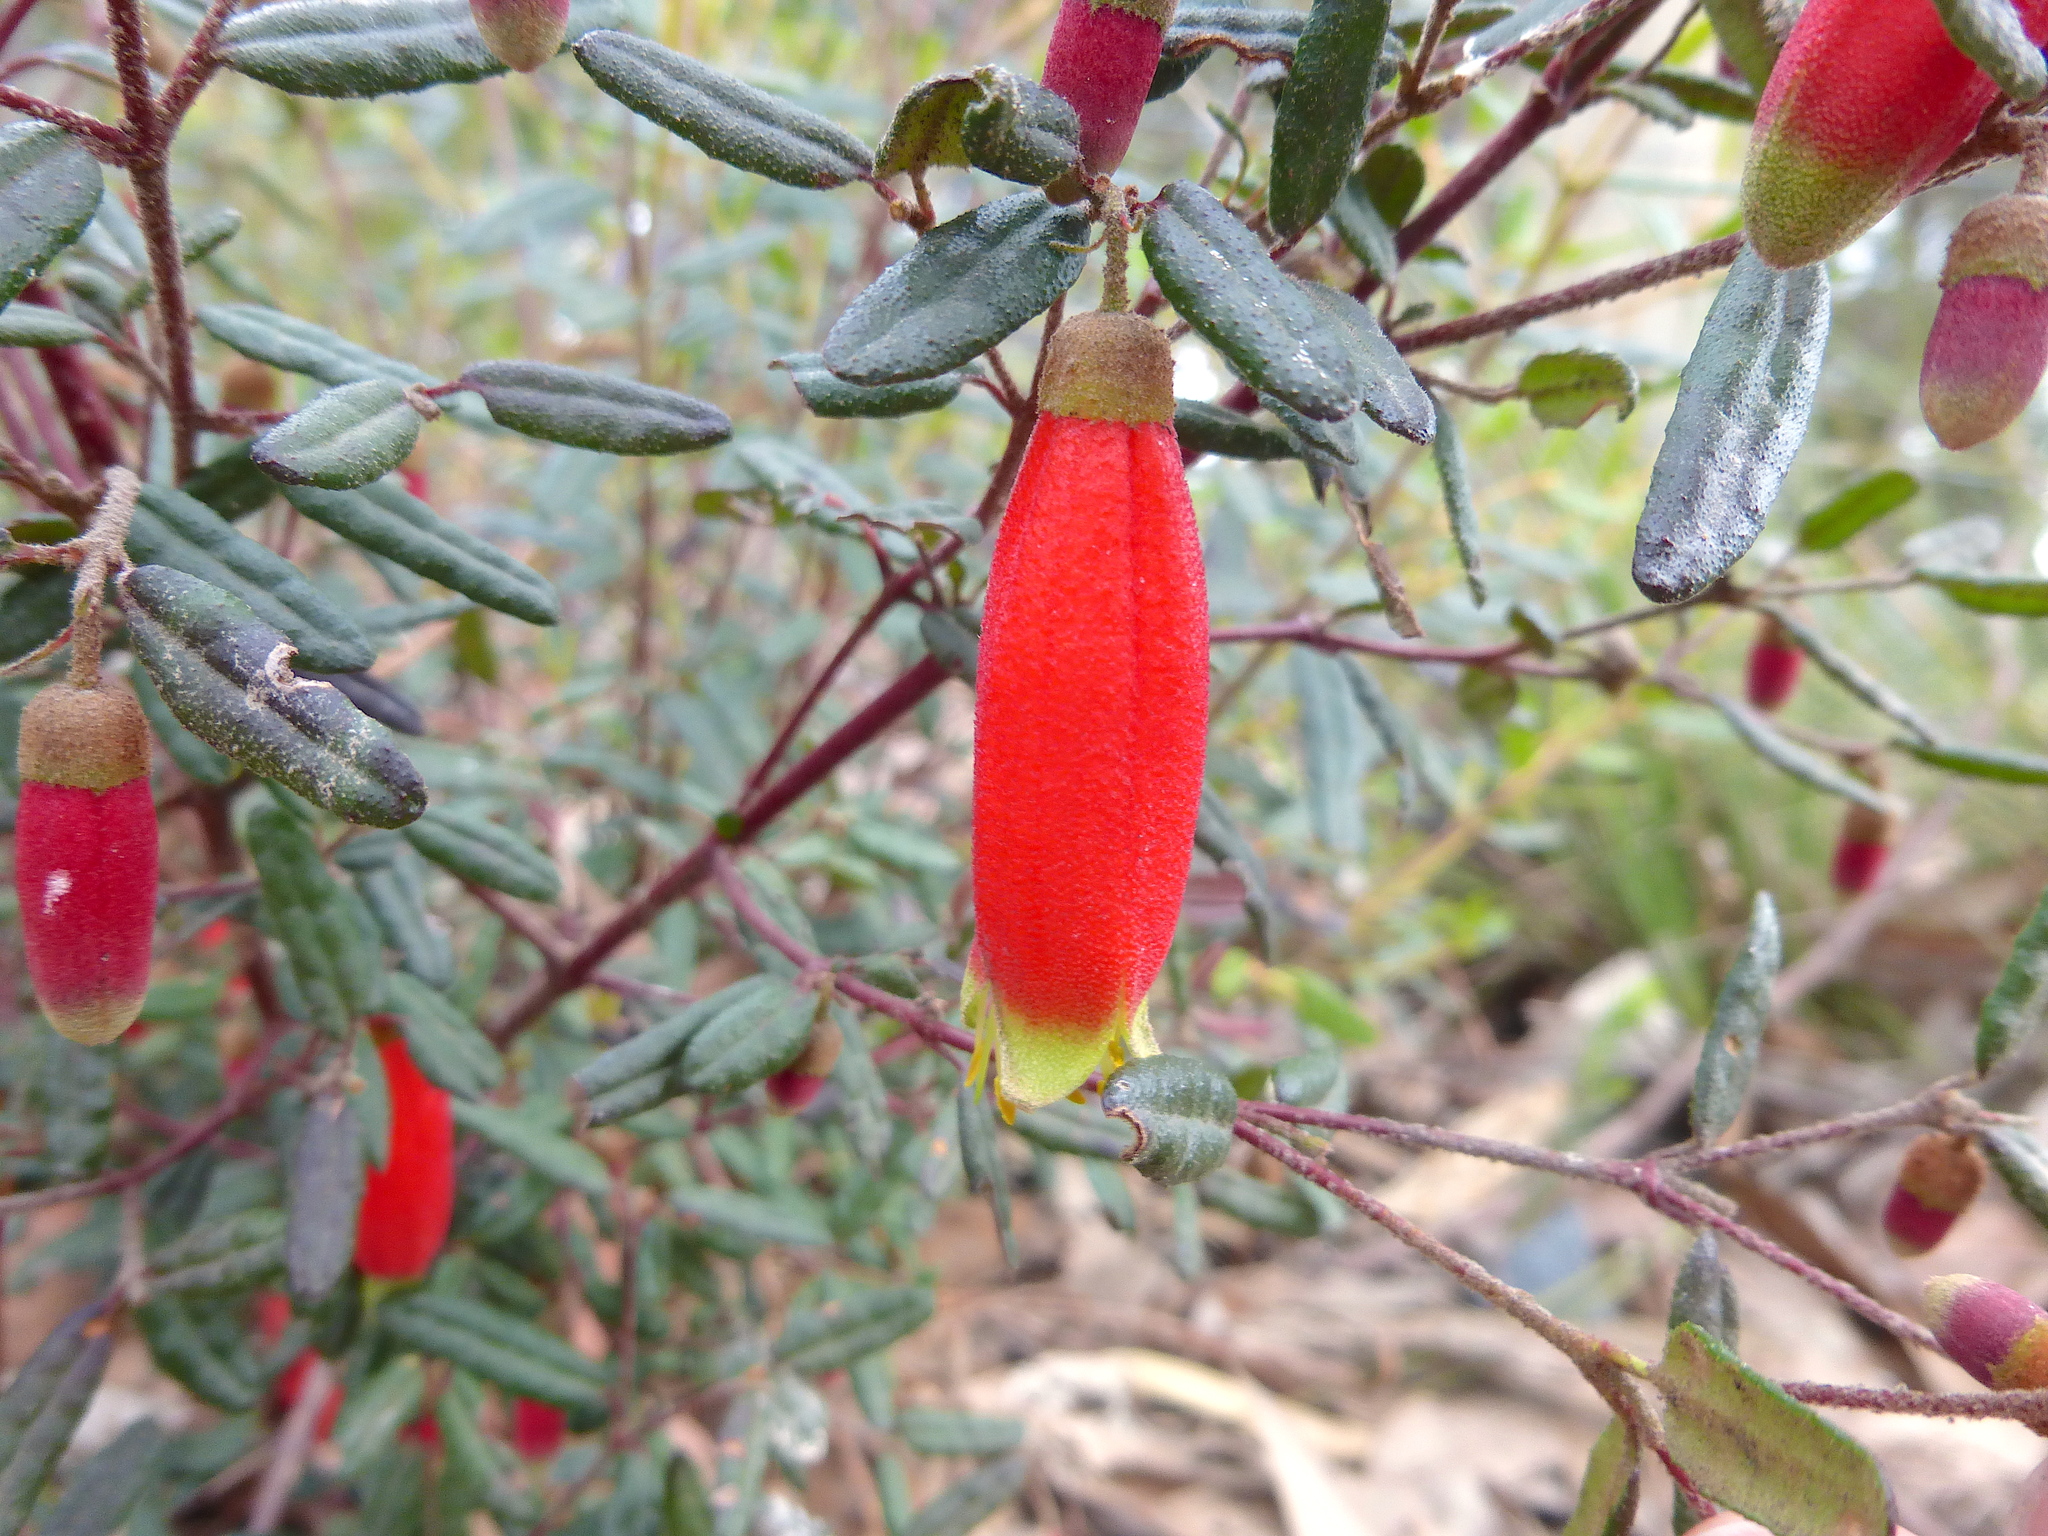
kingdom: Plantae
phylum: Tracheophyta
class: Magnoliopsida
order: Sapindales
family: Rutaceae
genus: Correa
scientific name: Correa reflexa
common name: Common correa
